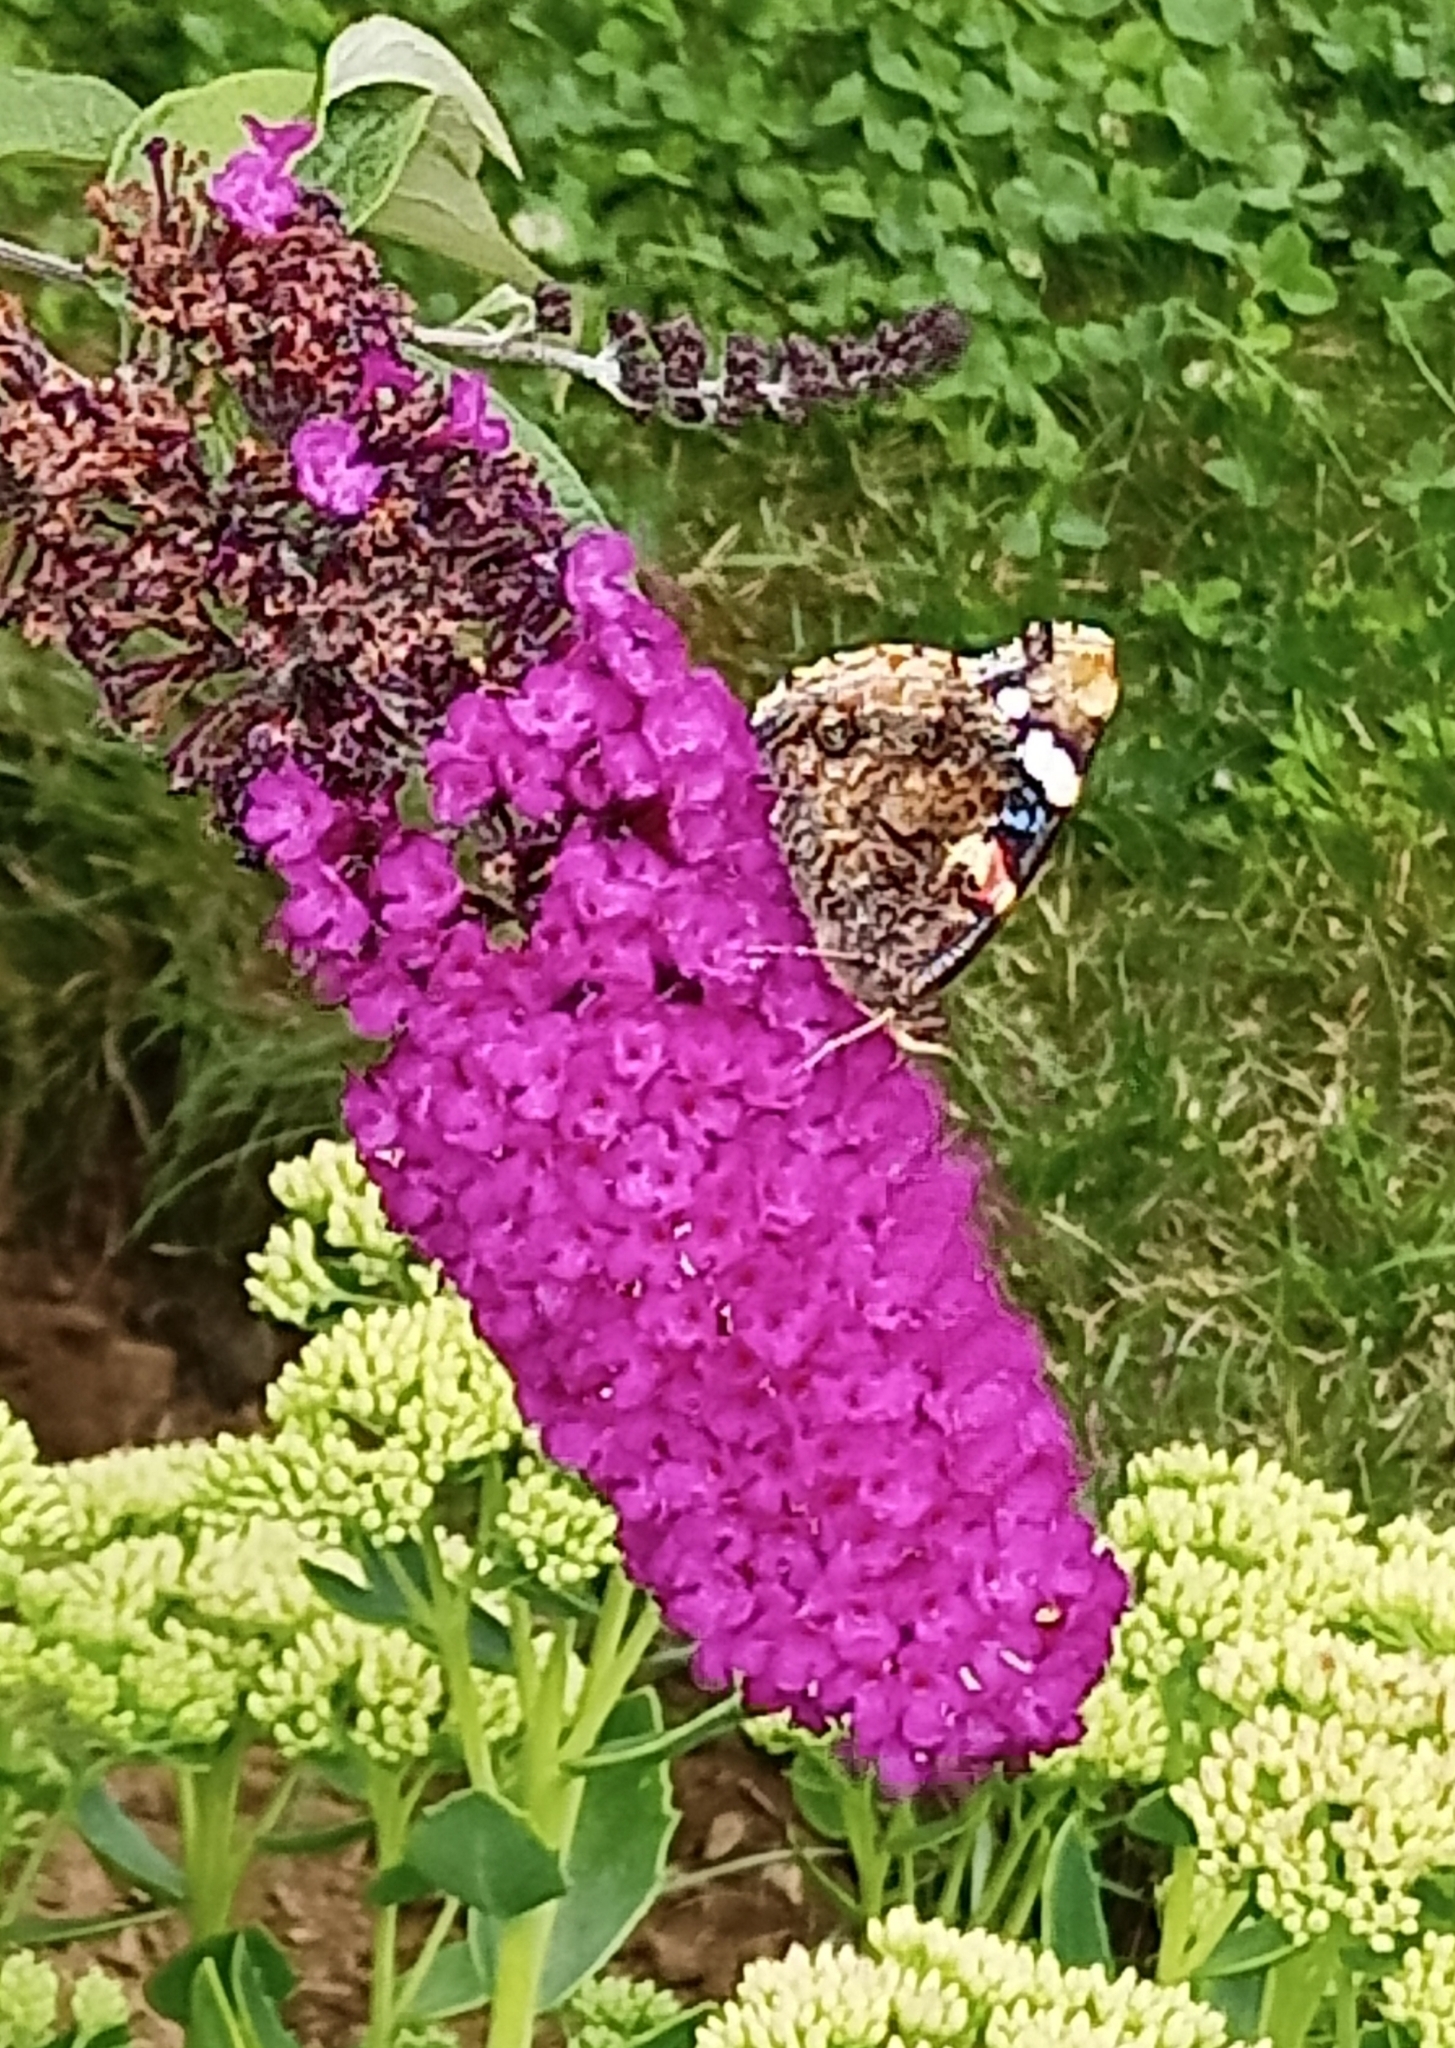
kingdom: Animalia
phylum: Arthropoda
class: Insecta
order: Lepidoptera
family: Nymphalidae
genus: Vanessa
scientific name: Vanessa atalanta
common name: Red admiral
